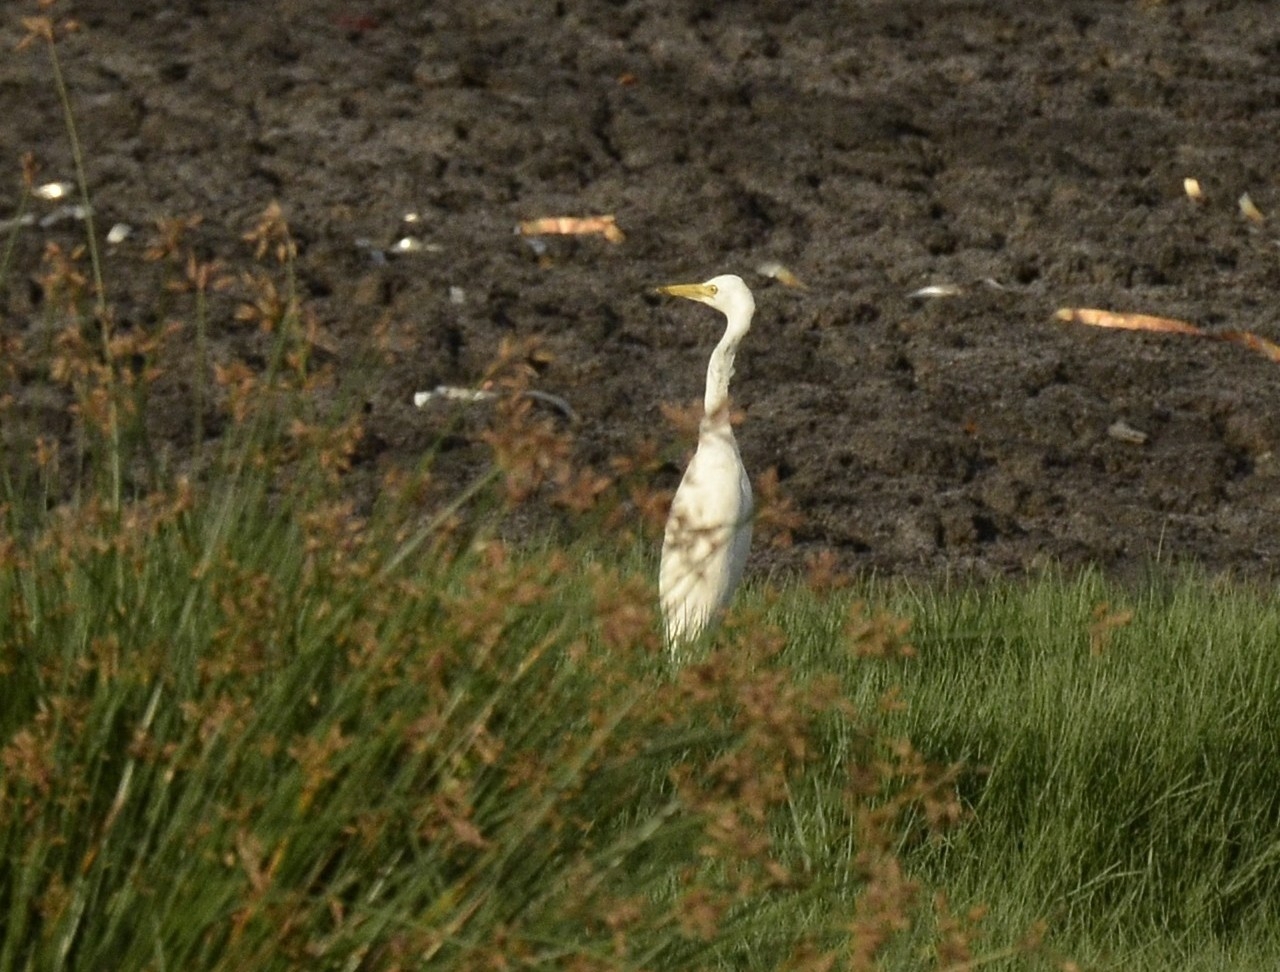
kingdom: Animalia
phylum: Chordata
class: Aves
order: Pelecaniformes
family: Ardeidae
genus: Bubulcus
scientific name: Bubulcus coromandus
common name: Eastern cattle egret
